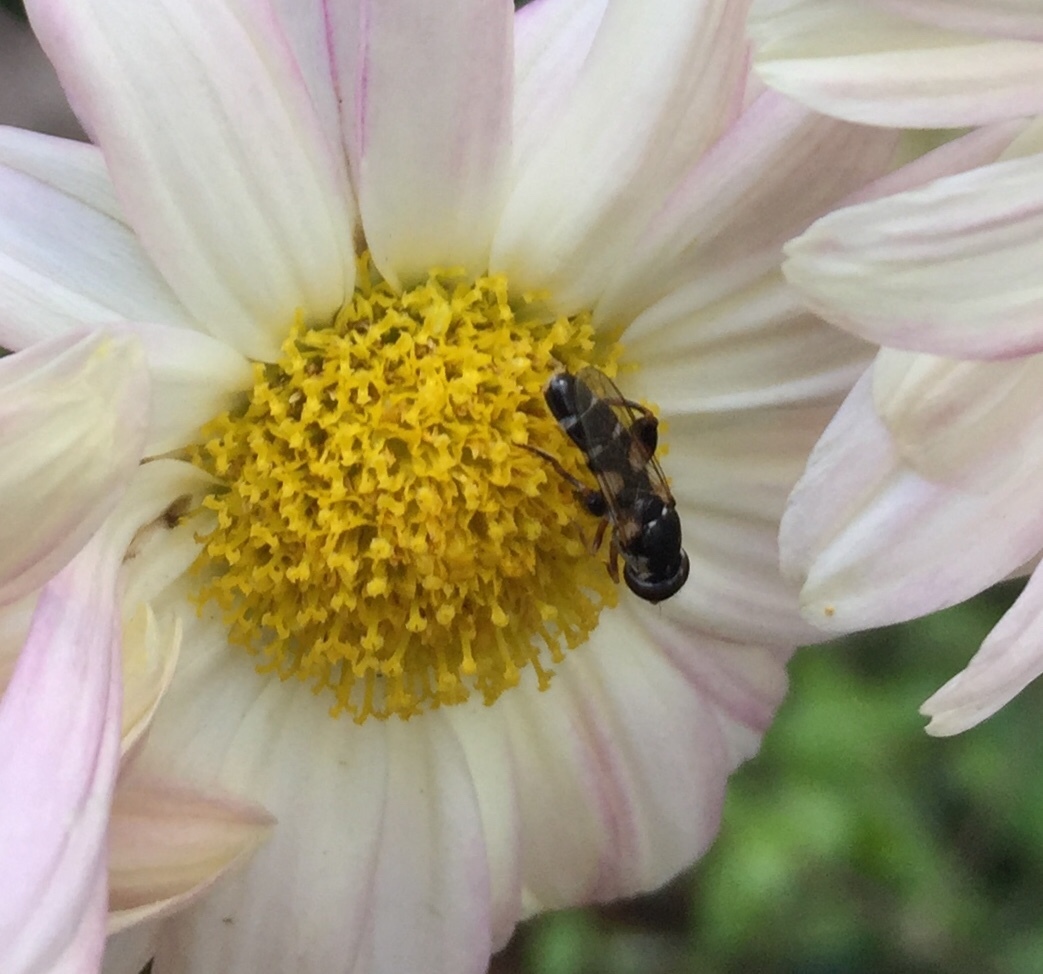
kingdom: Animalia
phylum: Arthropoda
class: Insecta
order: Diptera
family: Syrphidae
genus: Syritta
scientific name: Syritta pipiens
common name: Hover fly
